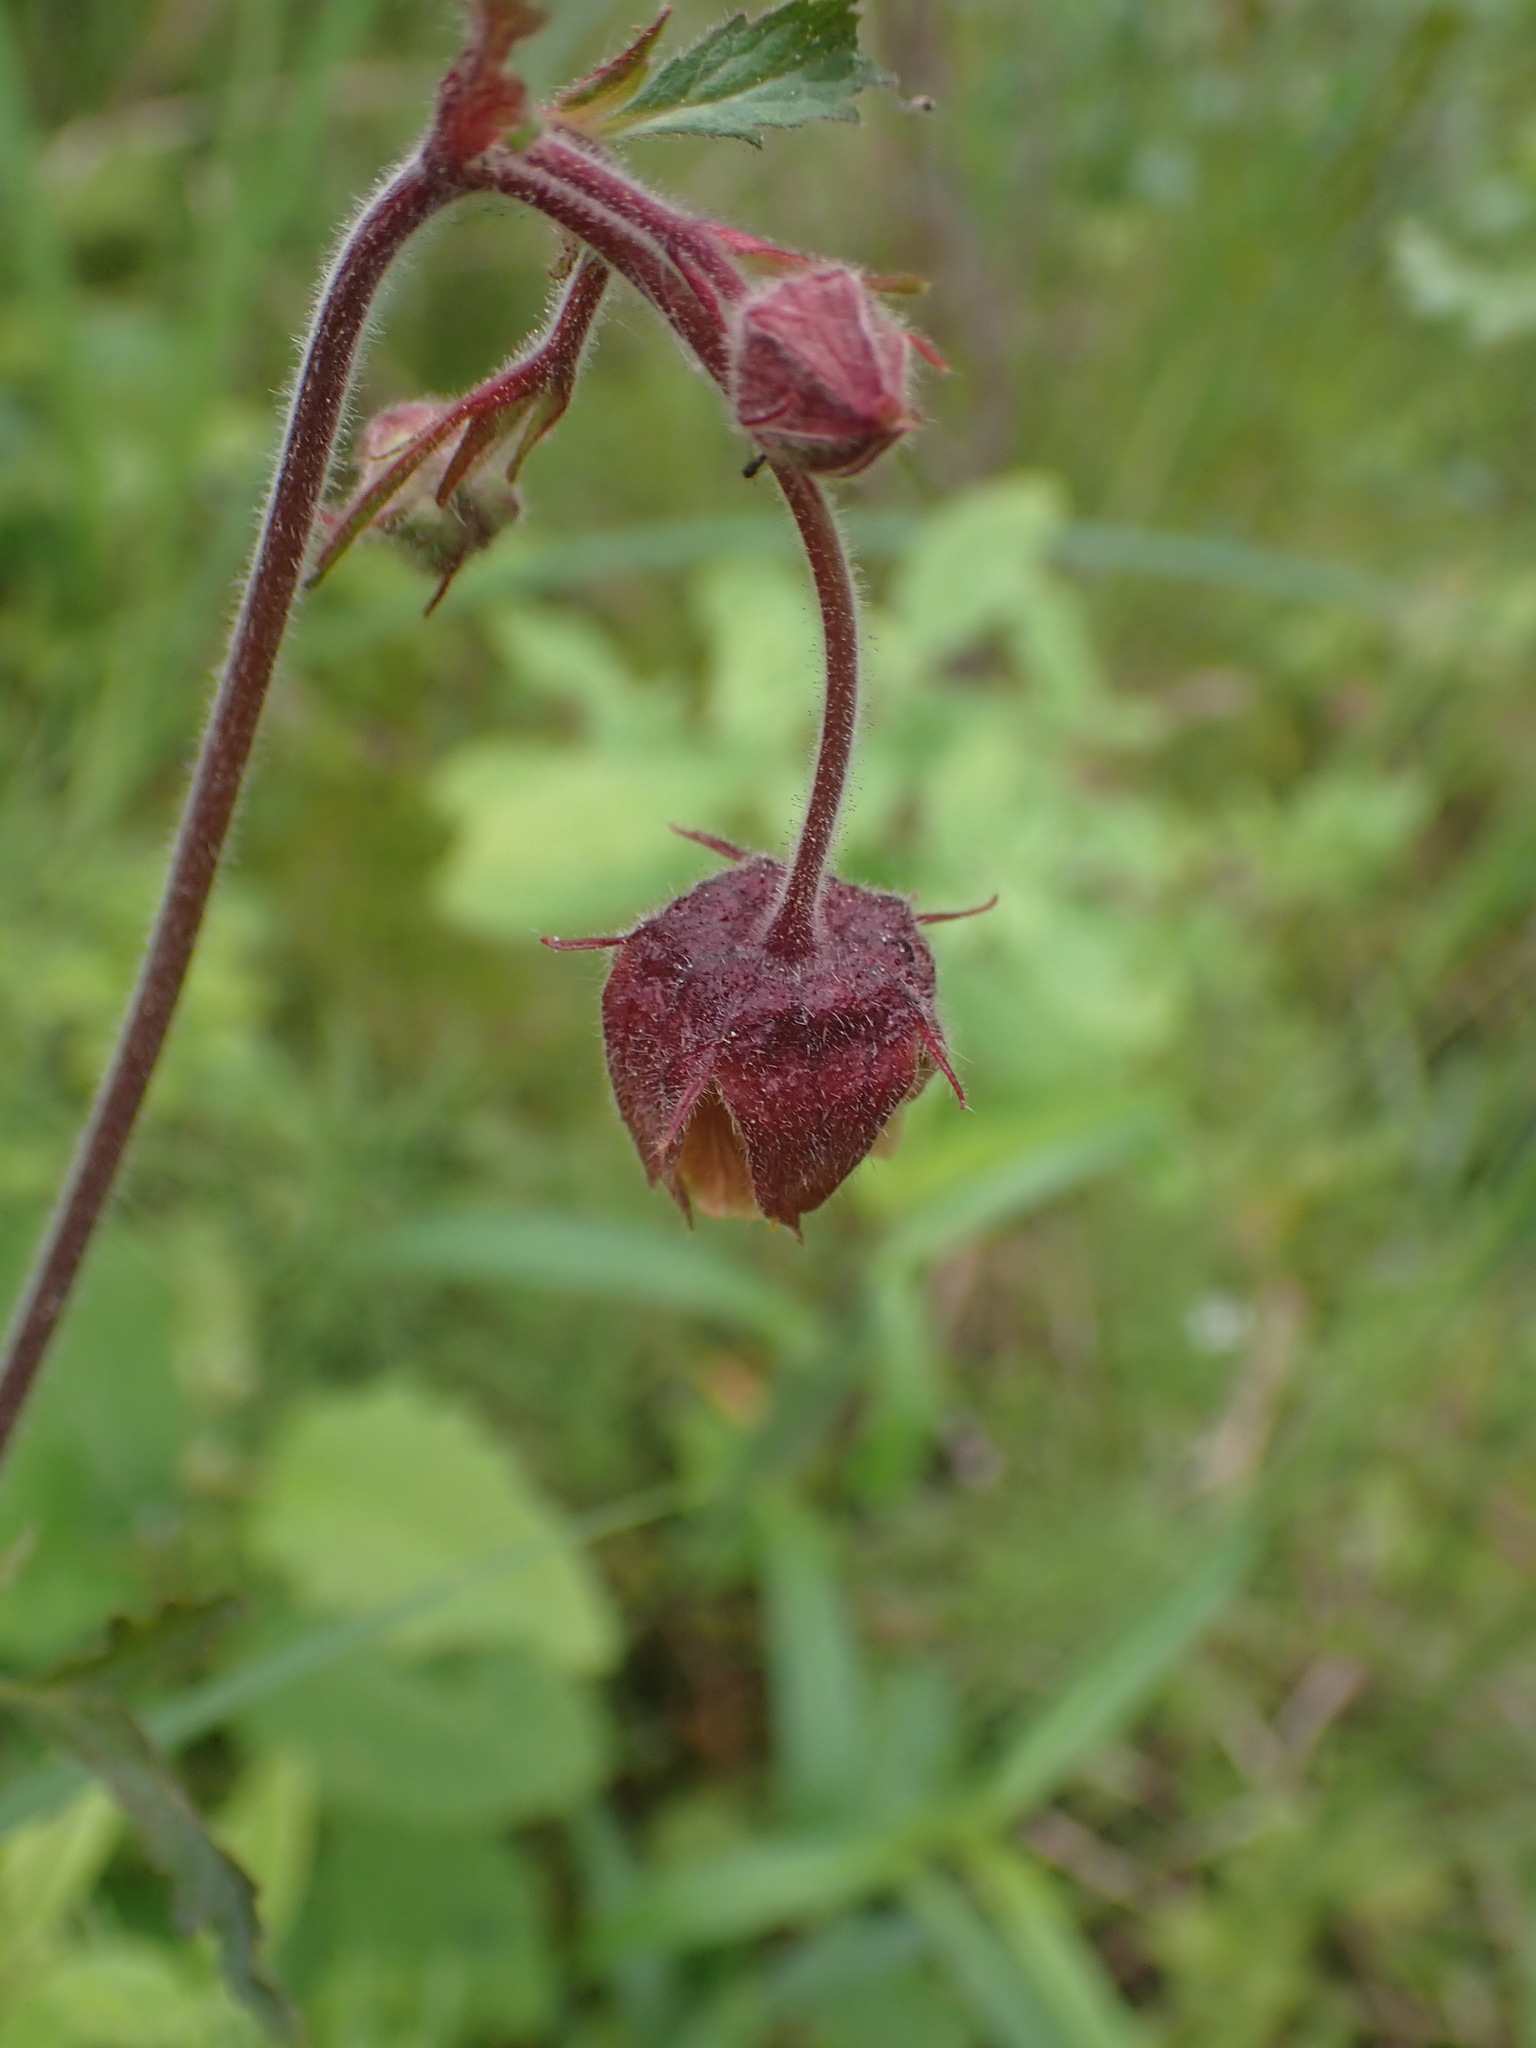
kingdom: Plantae
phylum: Tracheophyta
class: Magnoliopsida
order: Rosales
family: Rosaceae
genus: Geum
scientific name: Geum rivale
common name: Water avens
